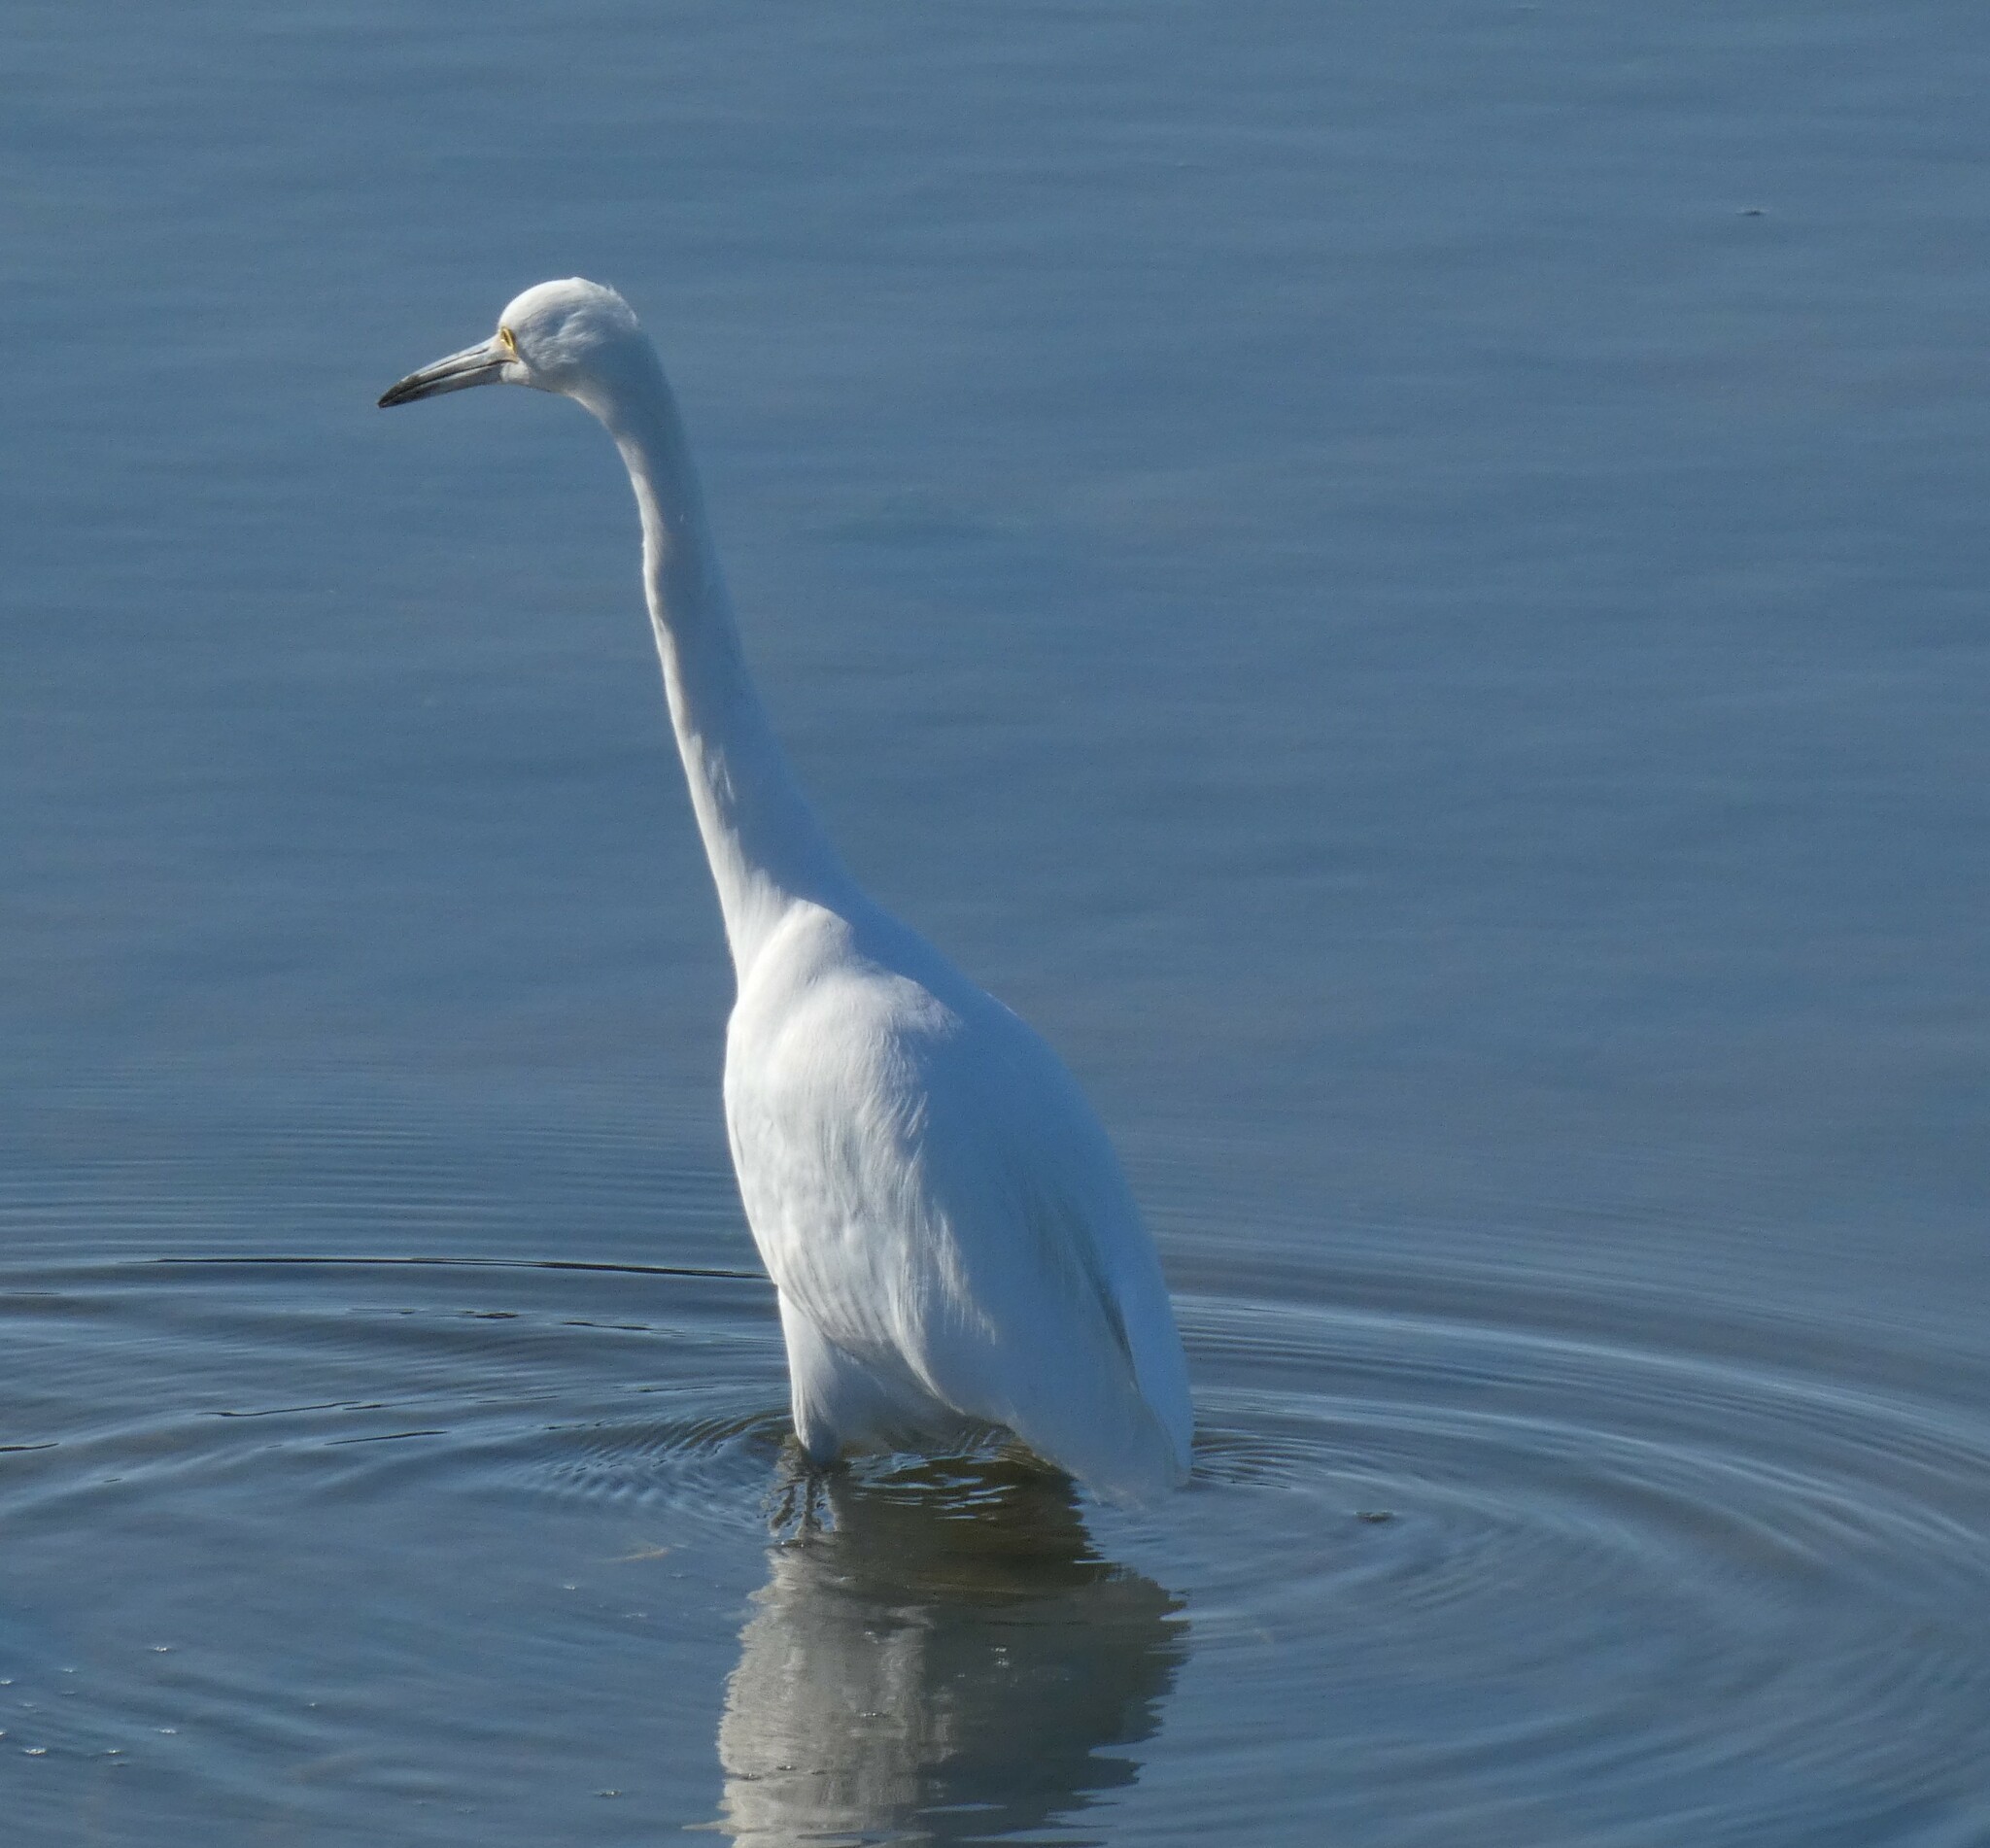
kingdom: Animalia
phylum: Chordata
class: Aves
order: Pelecaniformes
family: Ardeidae
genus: Egretta
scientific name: Egretta thula
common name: Snowy egret
